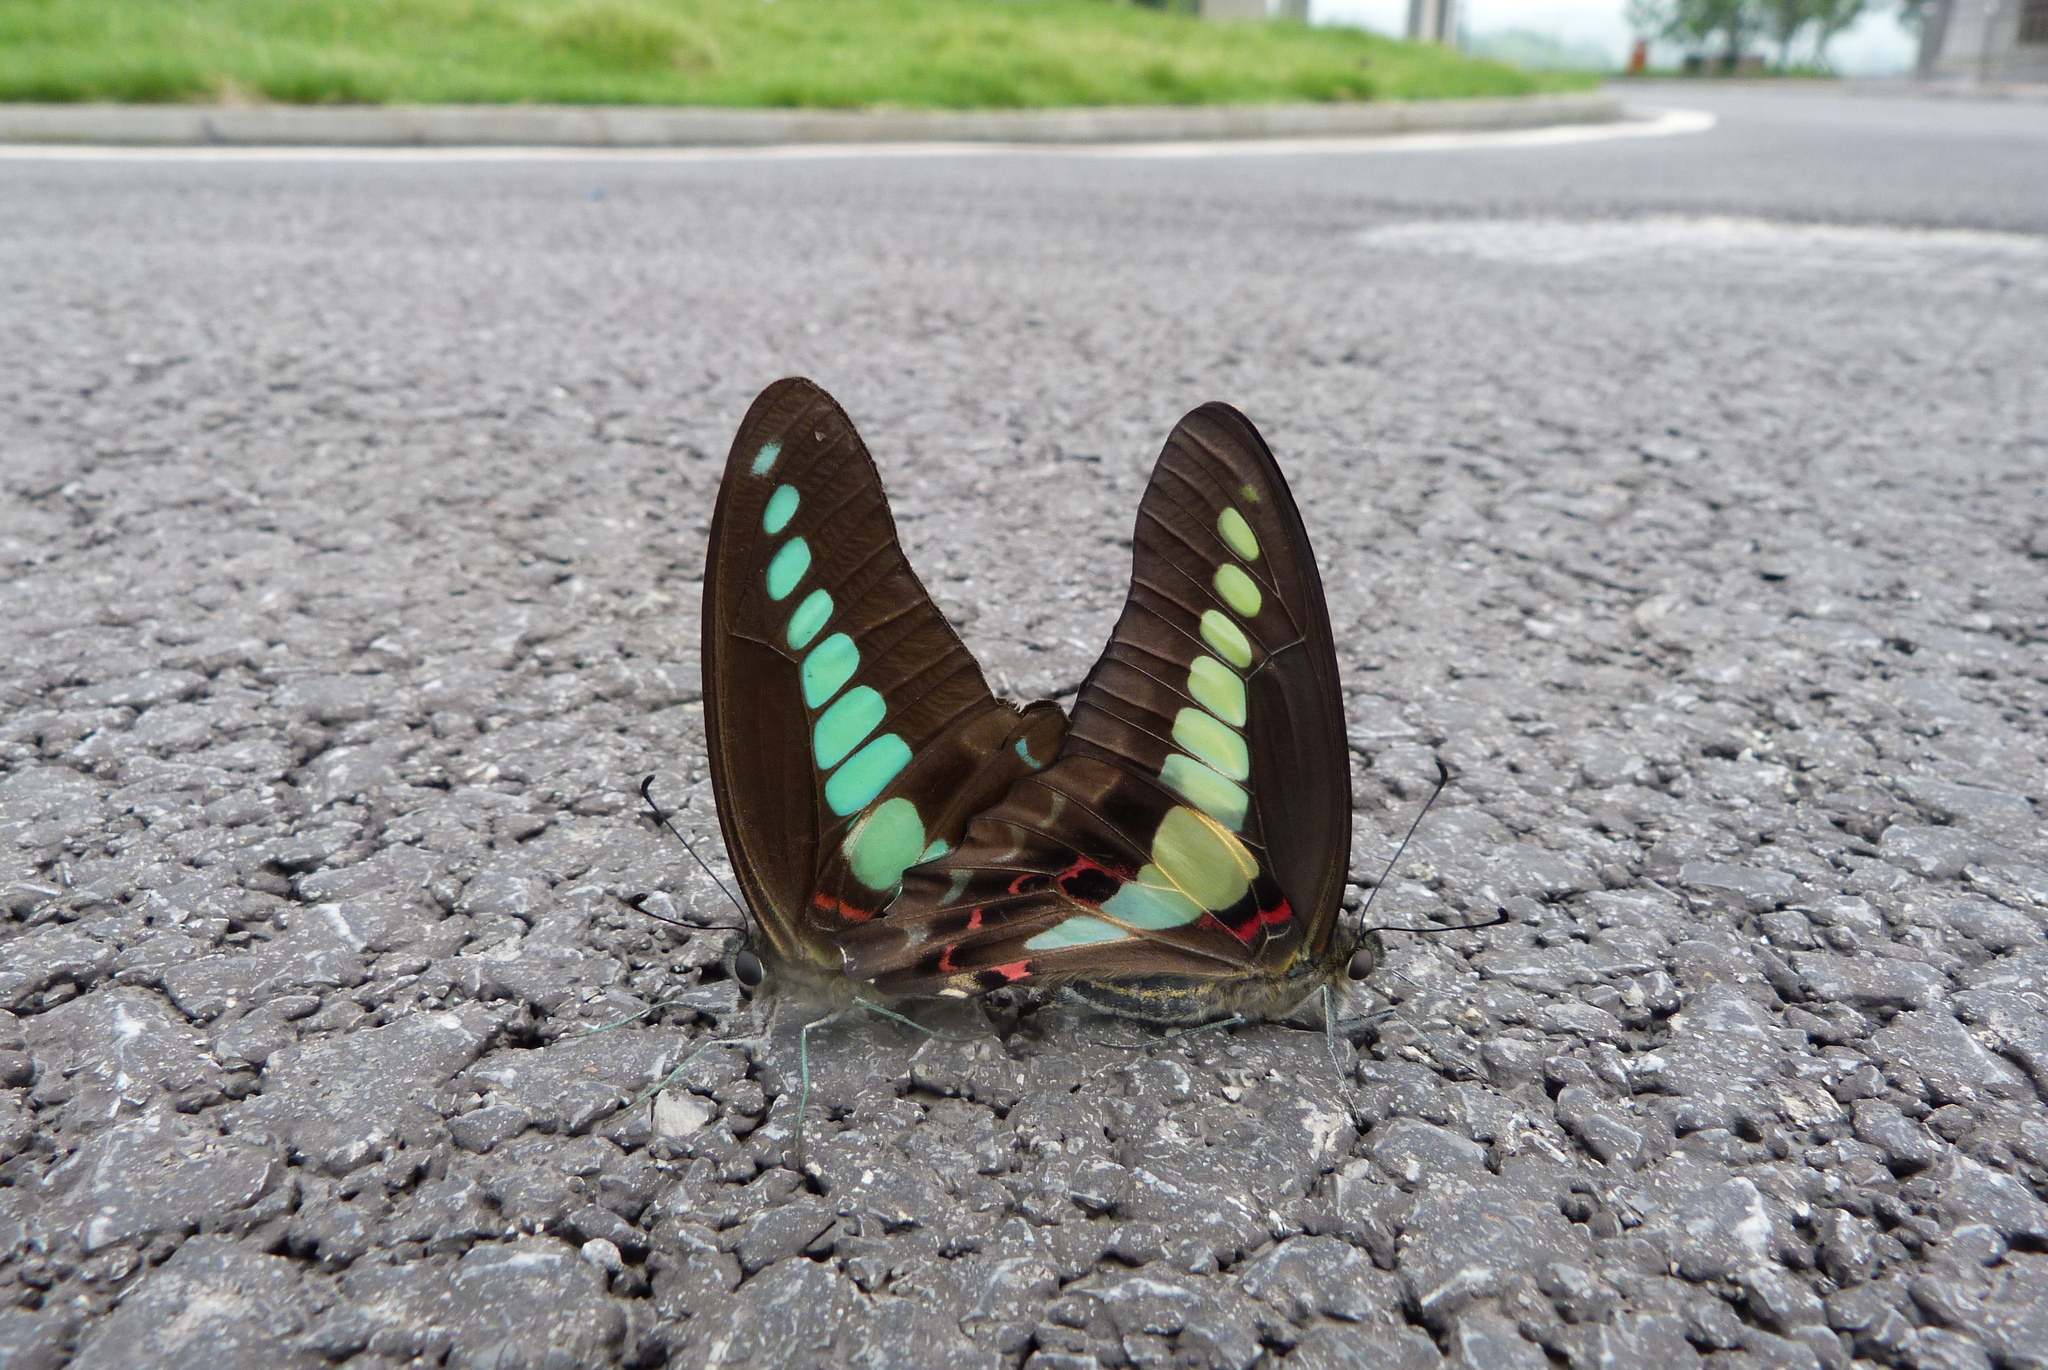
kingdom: Fungi
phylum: Ascomycota
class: Sordariomycetes
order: Microascales
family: Microascaceae
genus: Graphium
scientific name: Graphium sarpedon
